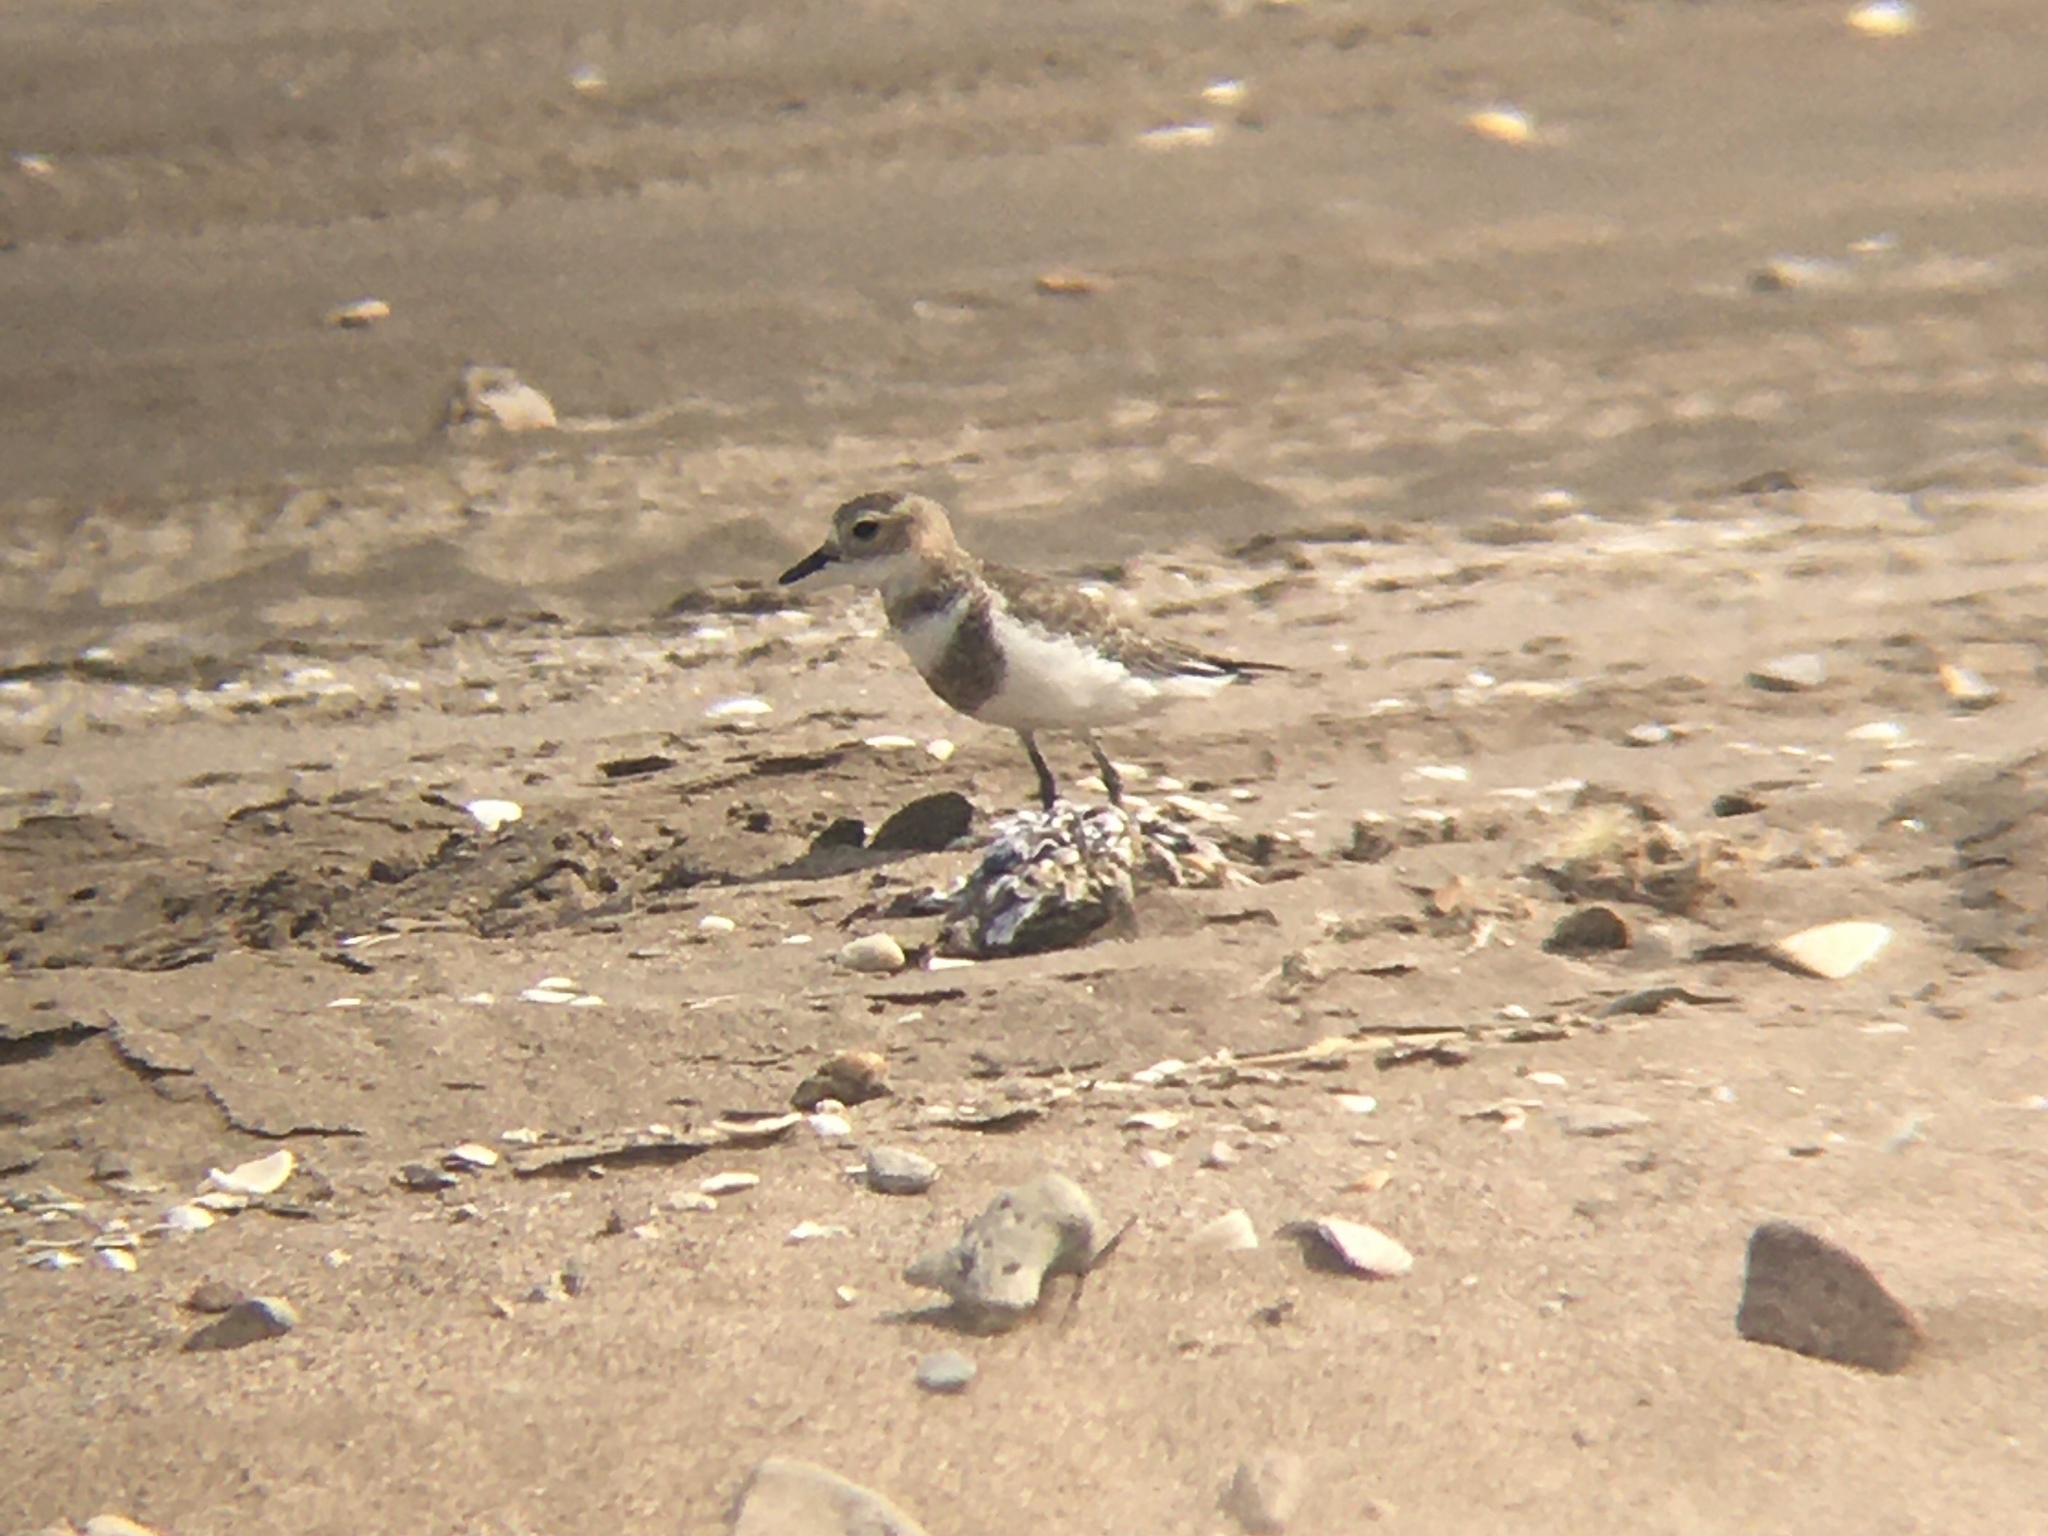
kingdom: Animalia
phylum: Chordata
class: Aves
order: Charadriiformes
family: Charadriidae
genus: Anarhynchus
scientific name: Anarhynchus
